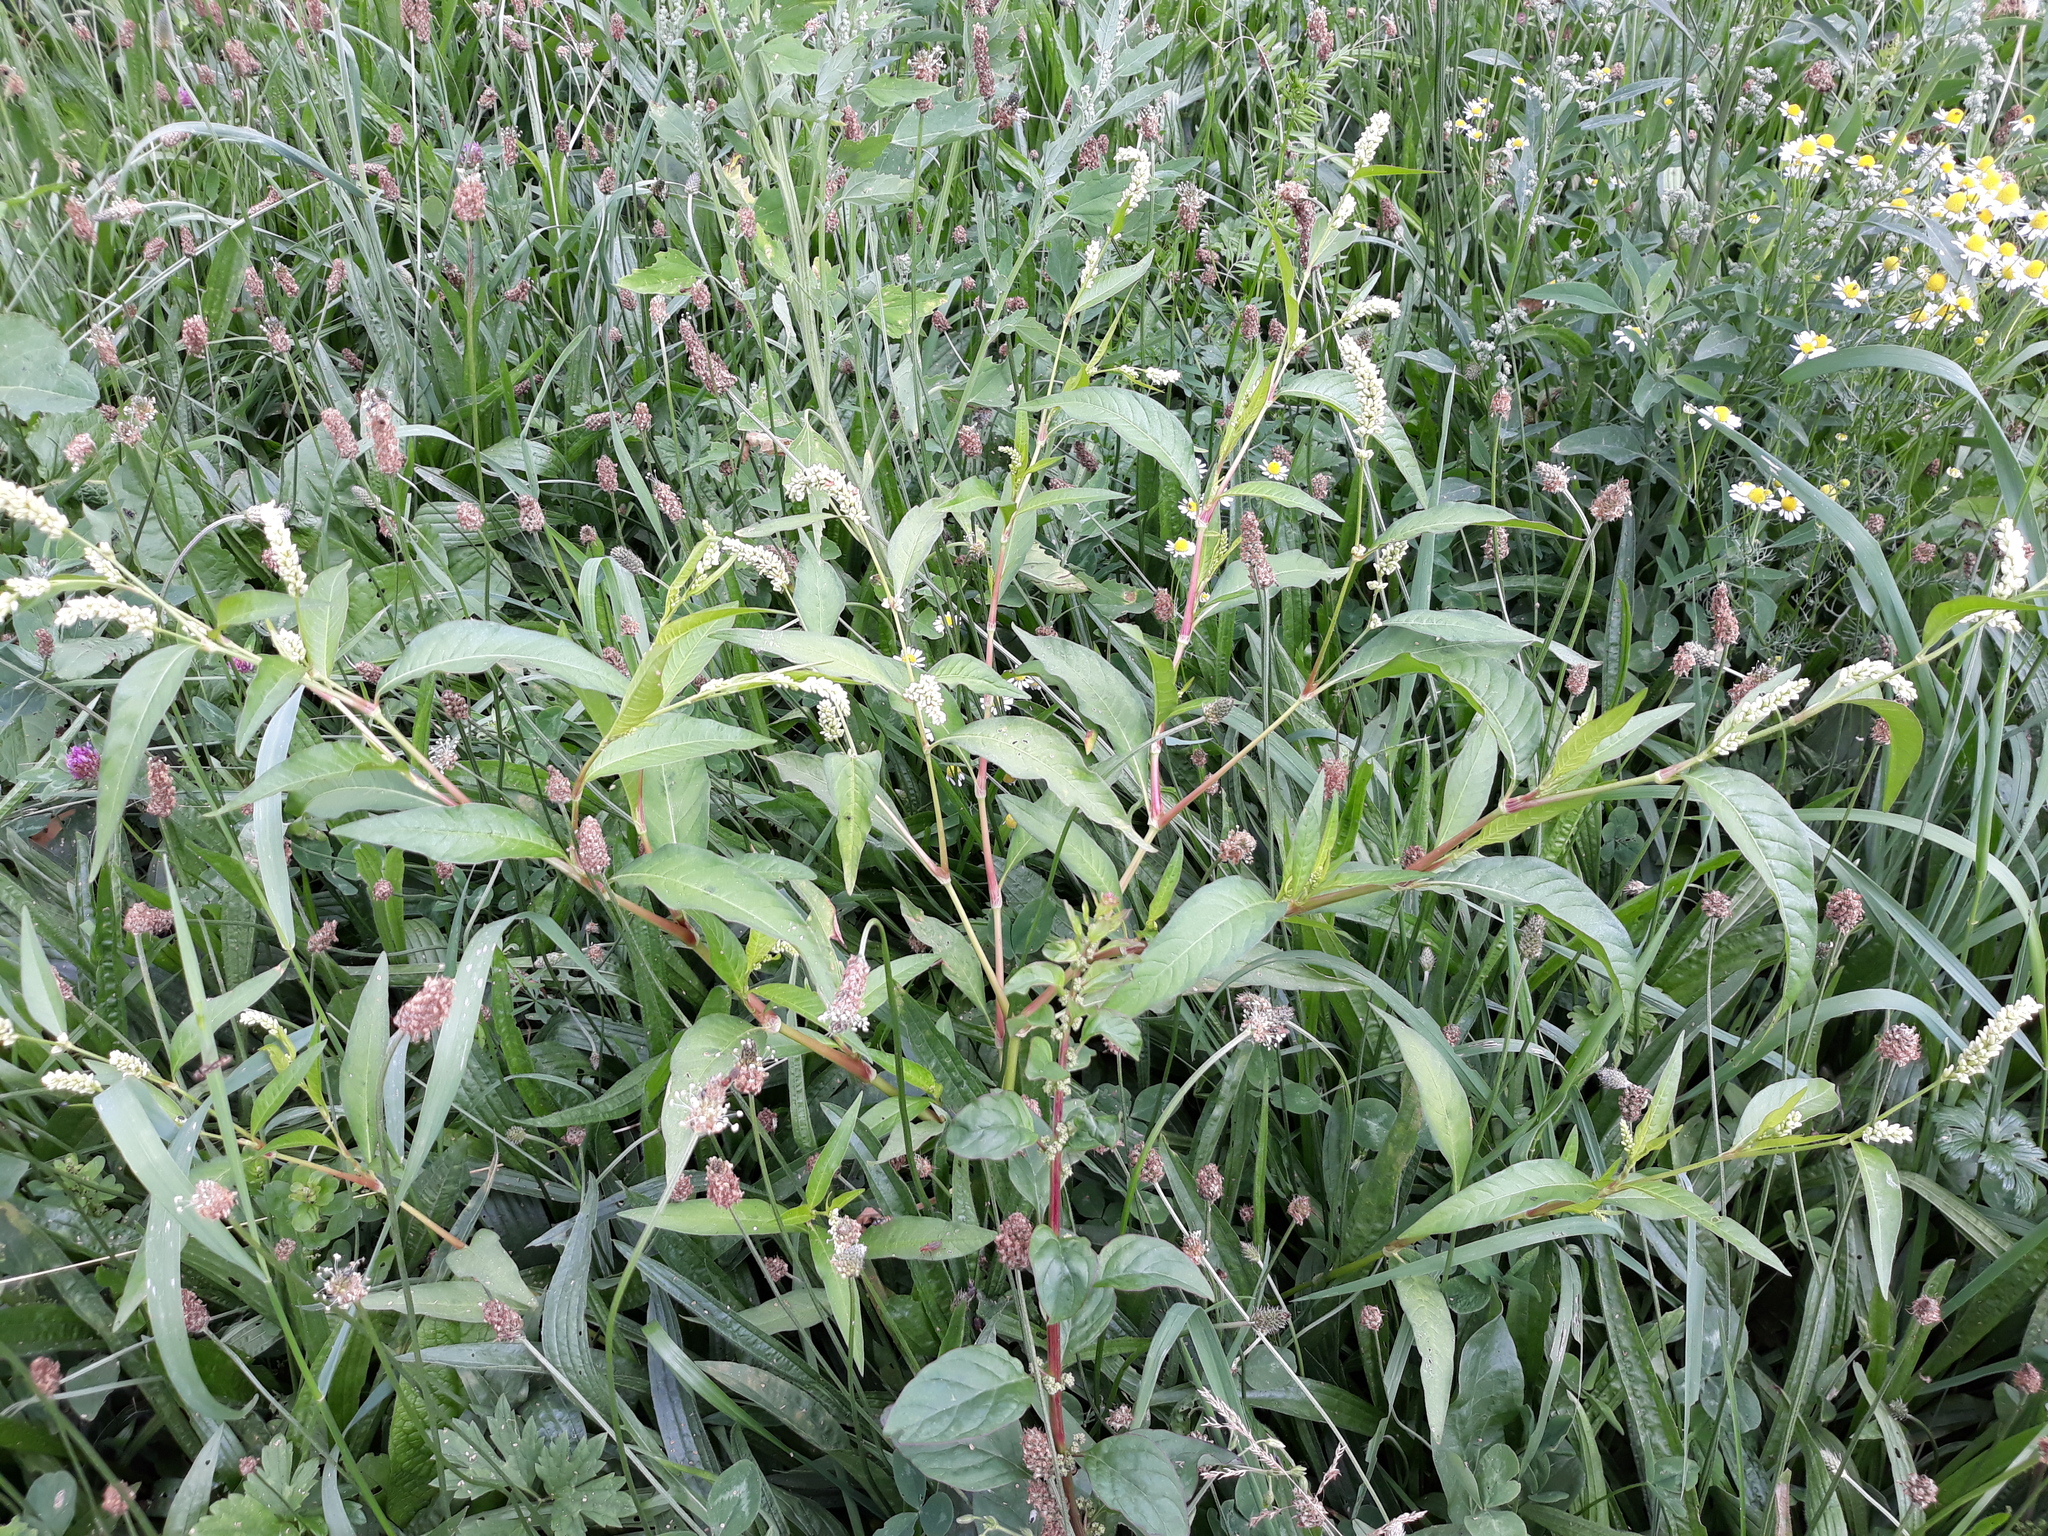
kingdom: Plantae
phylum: Tracheophyta
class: Magnoliopsida
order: Caryophyllales
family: Polygonaceae
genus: Persicaria
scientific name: Persicaria lapathifolia
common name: Curlytop knotweed
